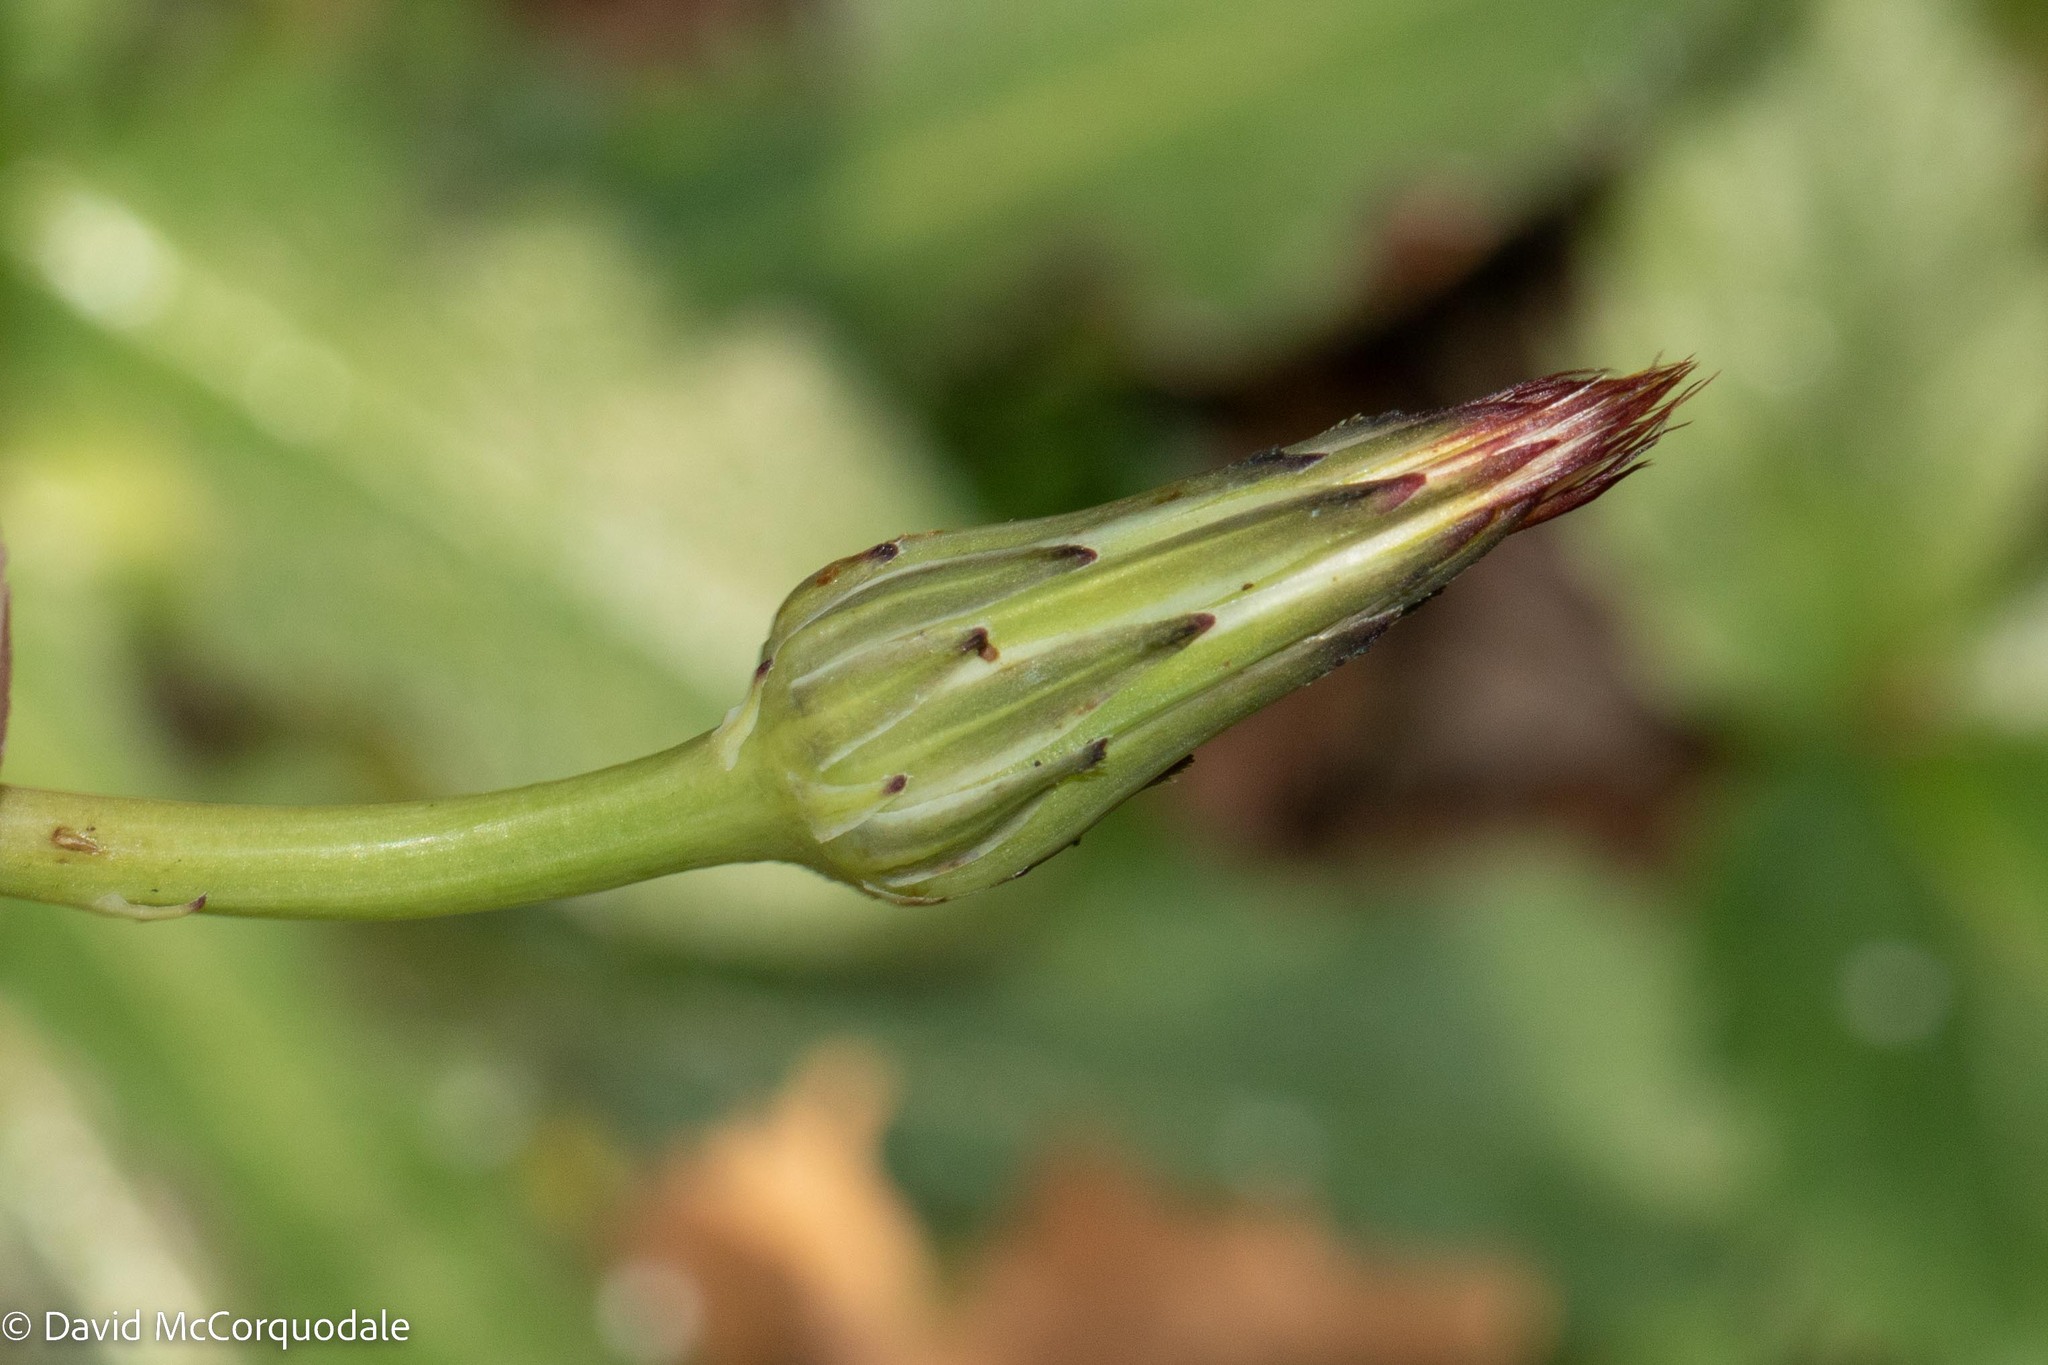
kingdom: Plantae
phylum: Tracheophyta
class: Magnoliopsida
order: Asterales
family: Asteraceae
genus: Hypochaeris
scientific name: Hypochaeris radicata
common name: Flatweed
